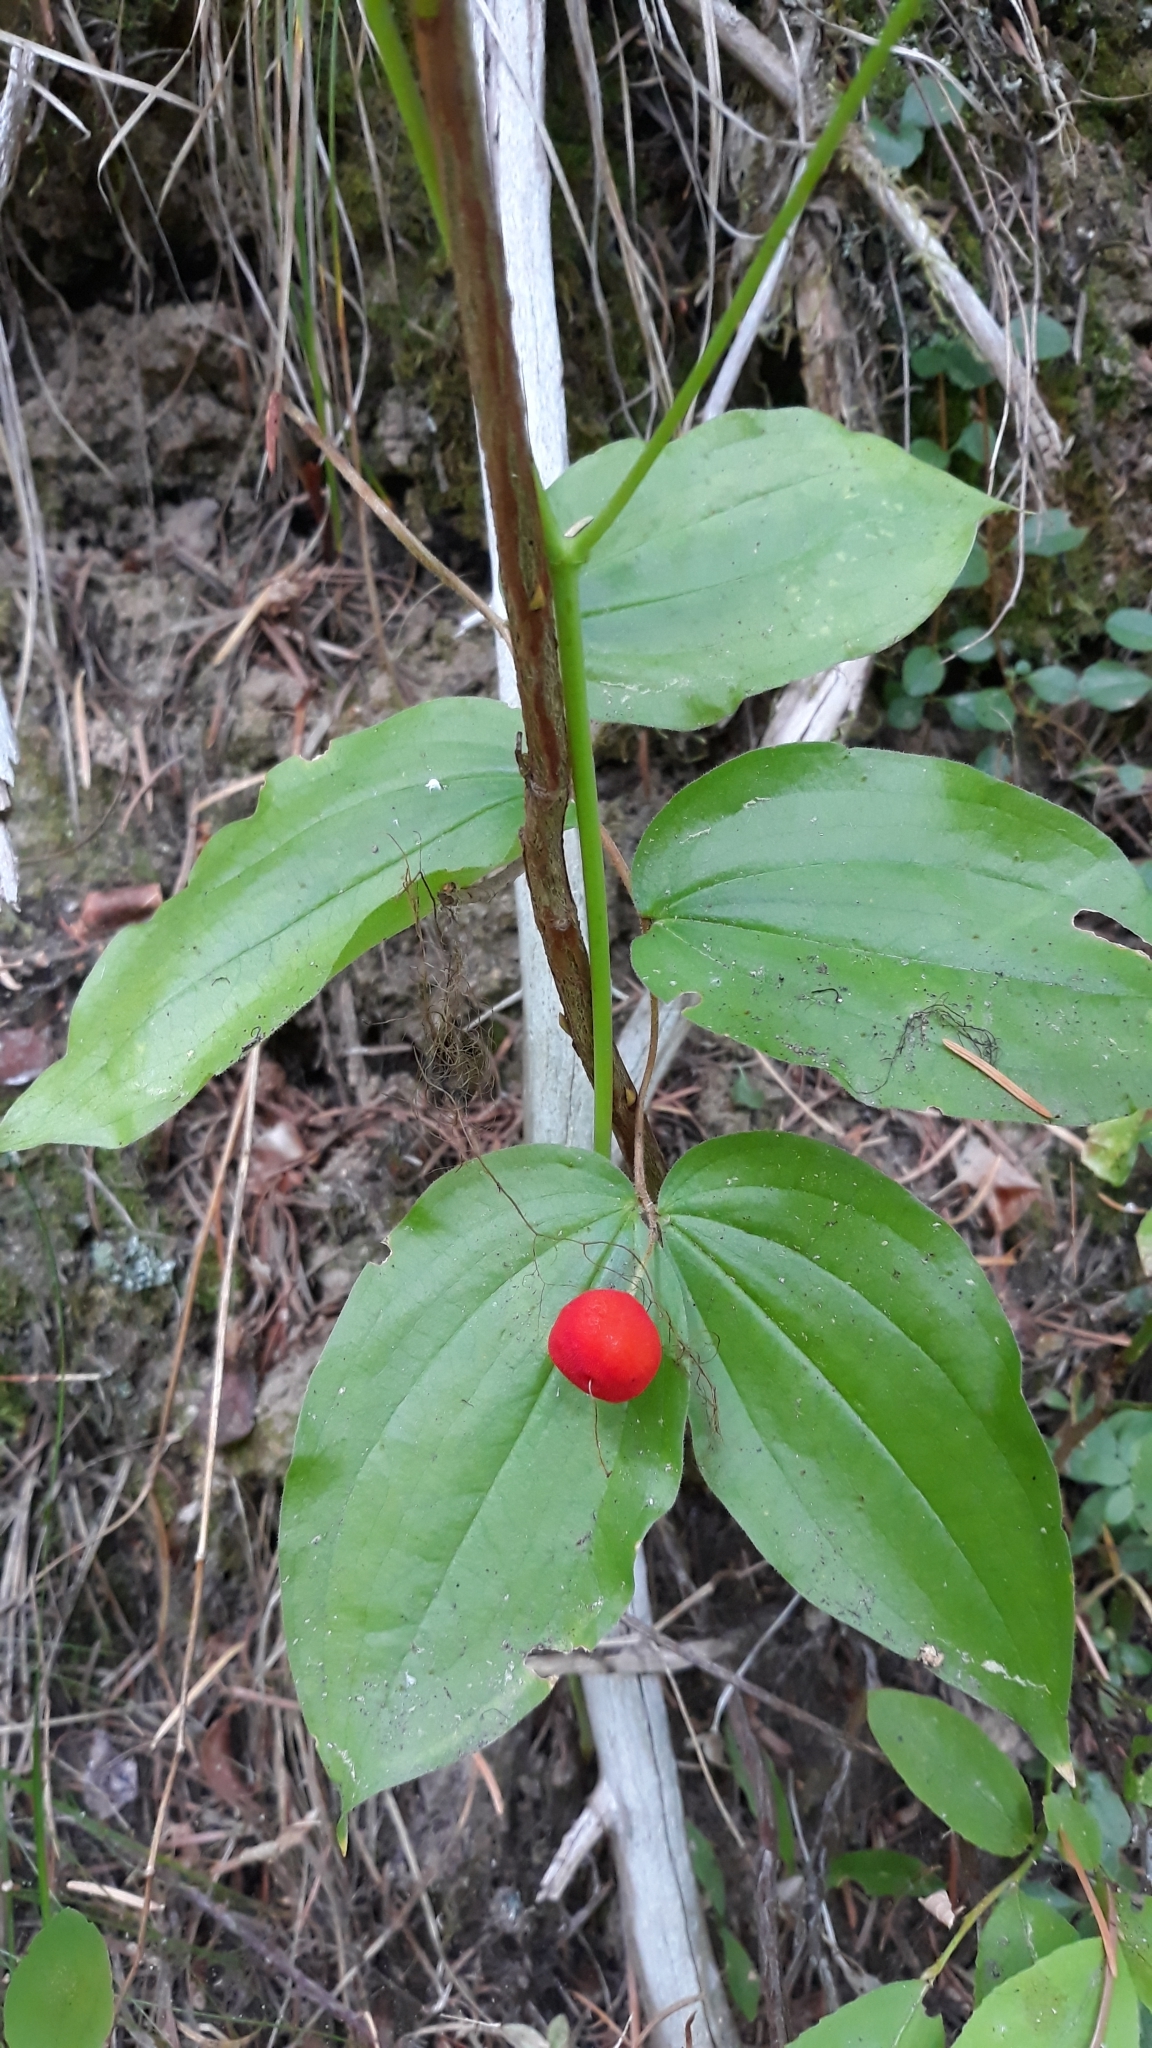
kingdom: Plantae
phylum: Tracheophyta
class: Liliopsida
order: Liliales
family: Liliaceae
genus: Prosartes
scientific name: Prosartes trachycarpa
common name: Rough-fruit fairy-bells
